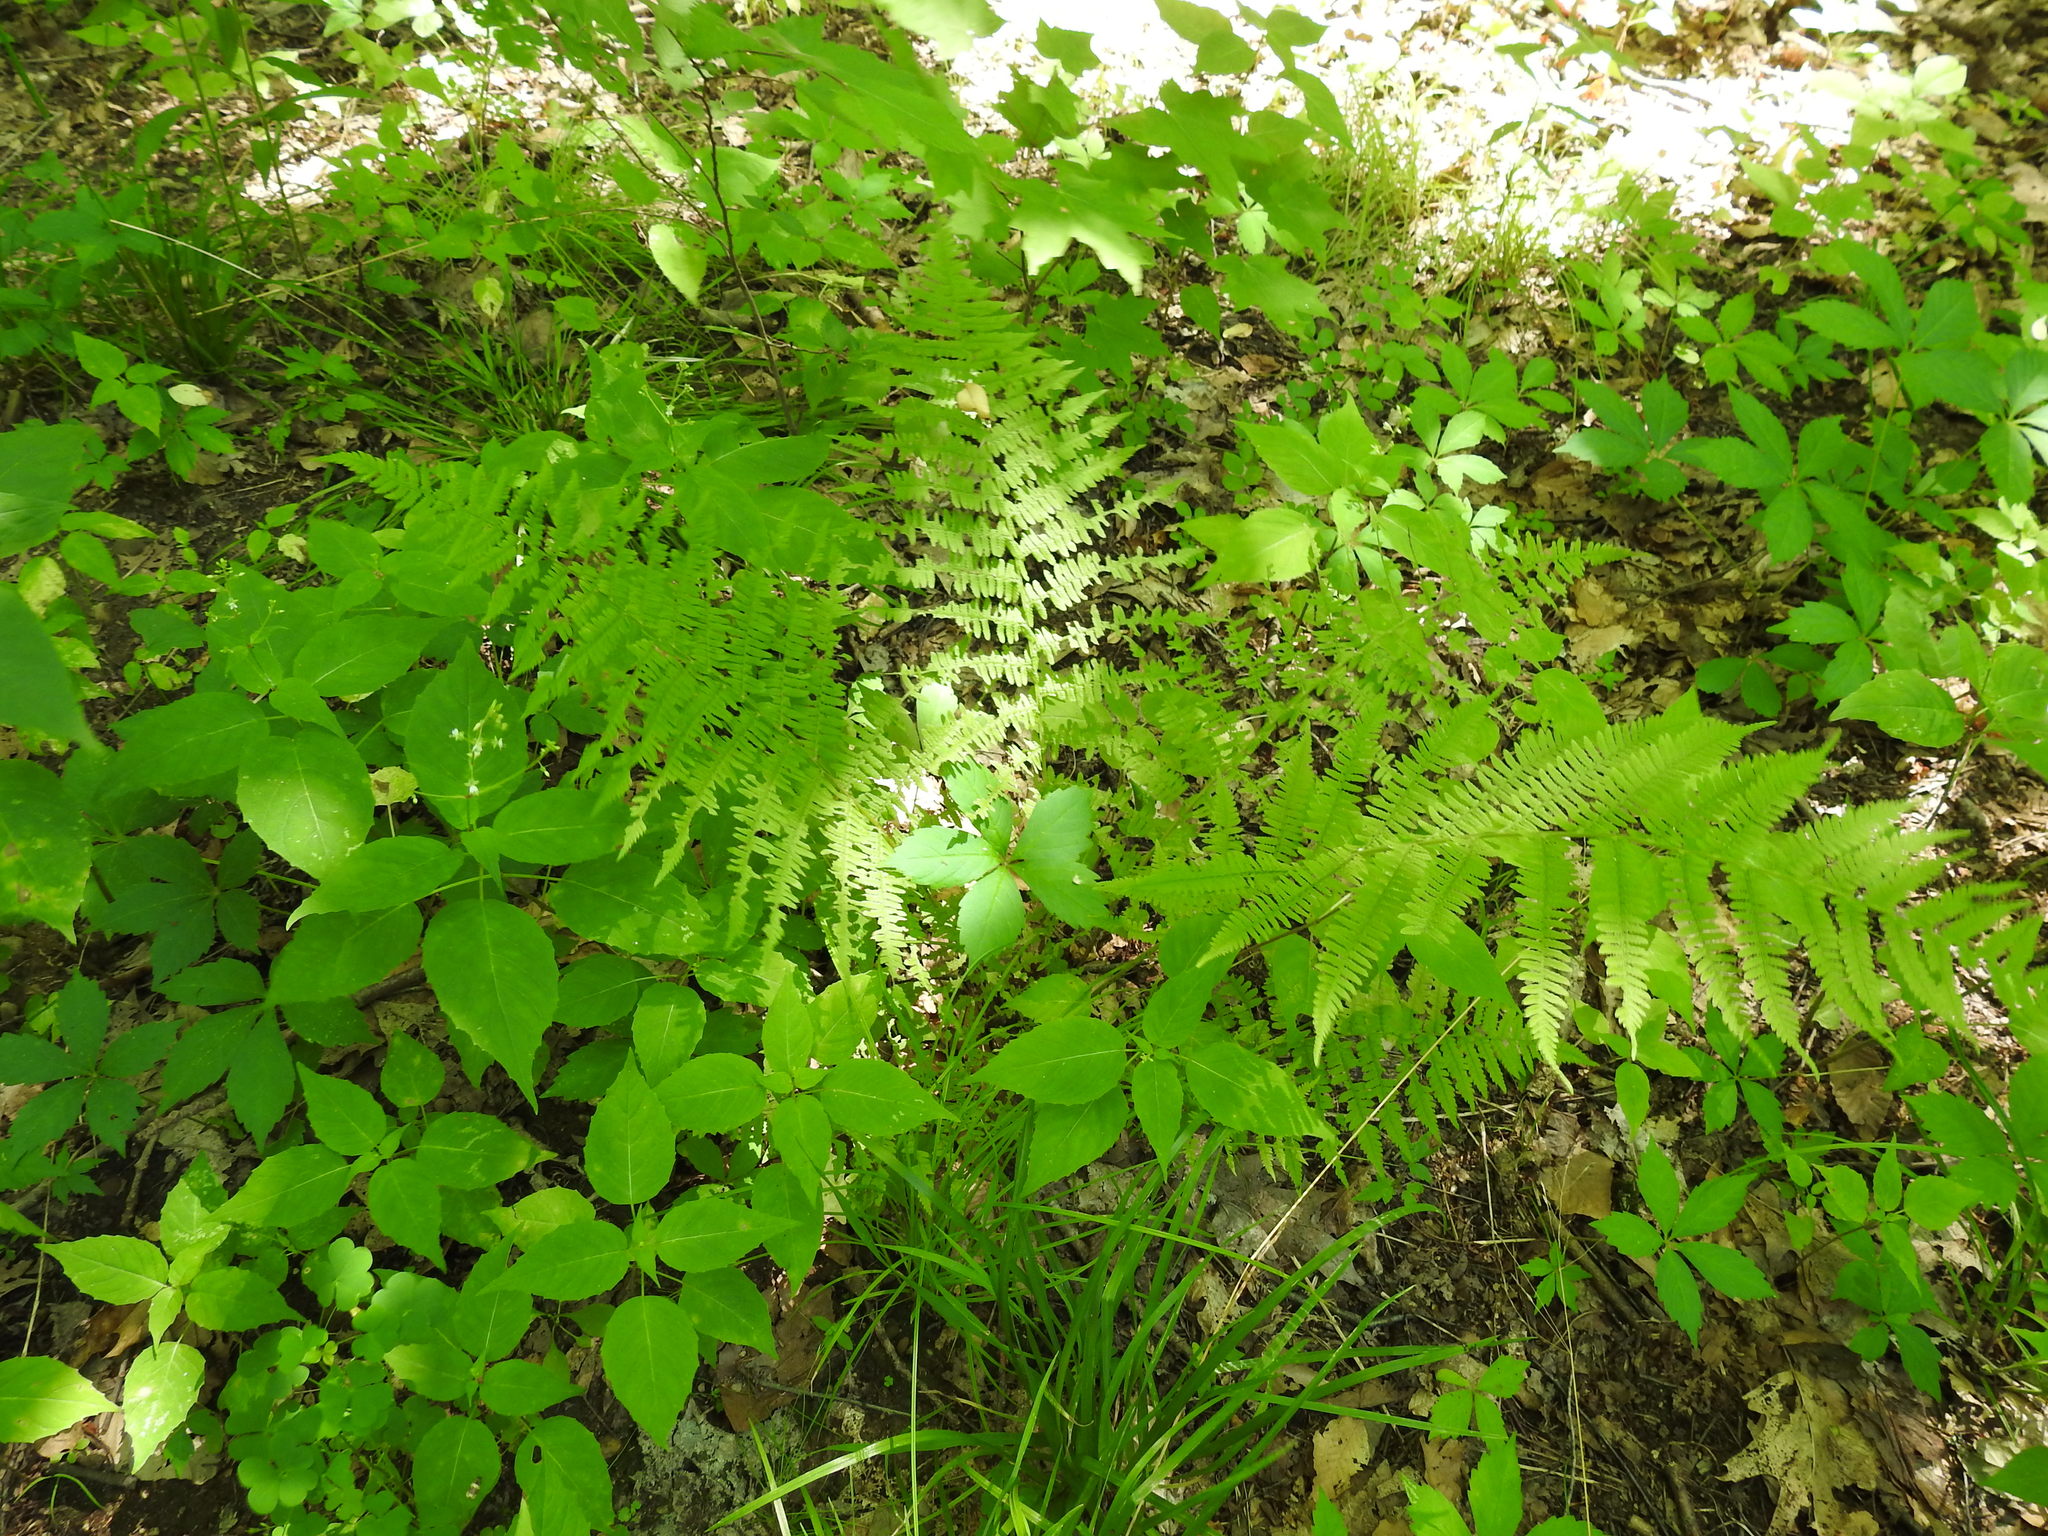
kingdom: Plantae
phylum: Tracheophyta
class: Polypodiopsida
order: Polypodiales
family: Athyriaceae
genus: Athyrium
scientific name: Athyrium angustum
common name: Northern lady fern
